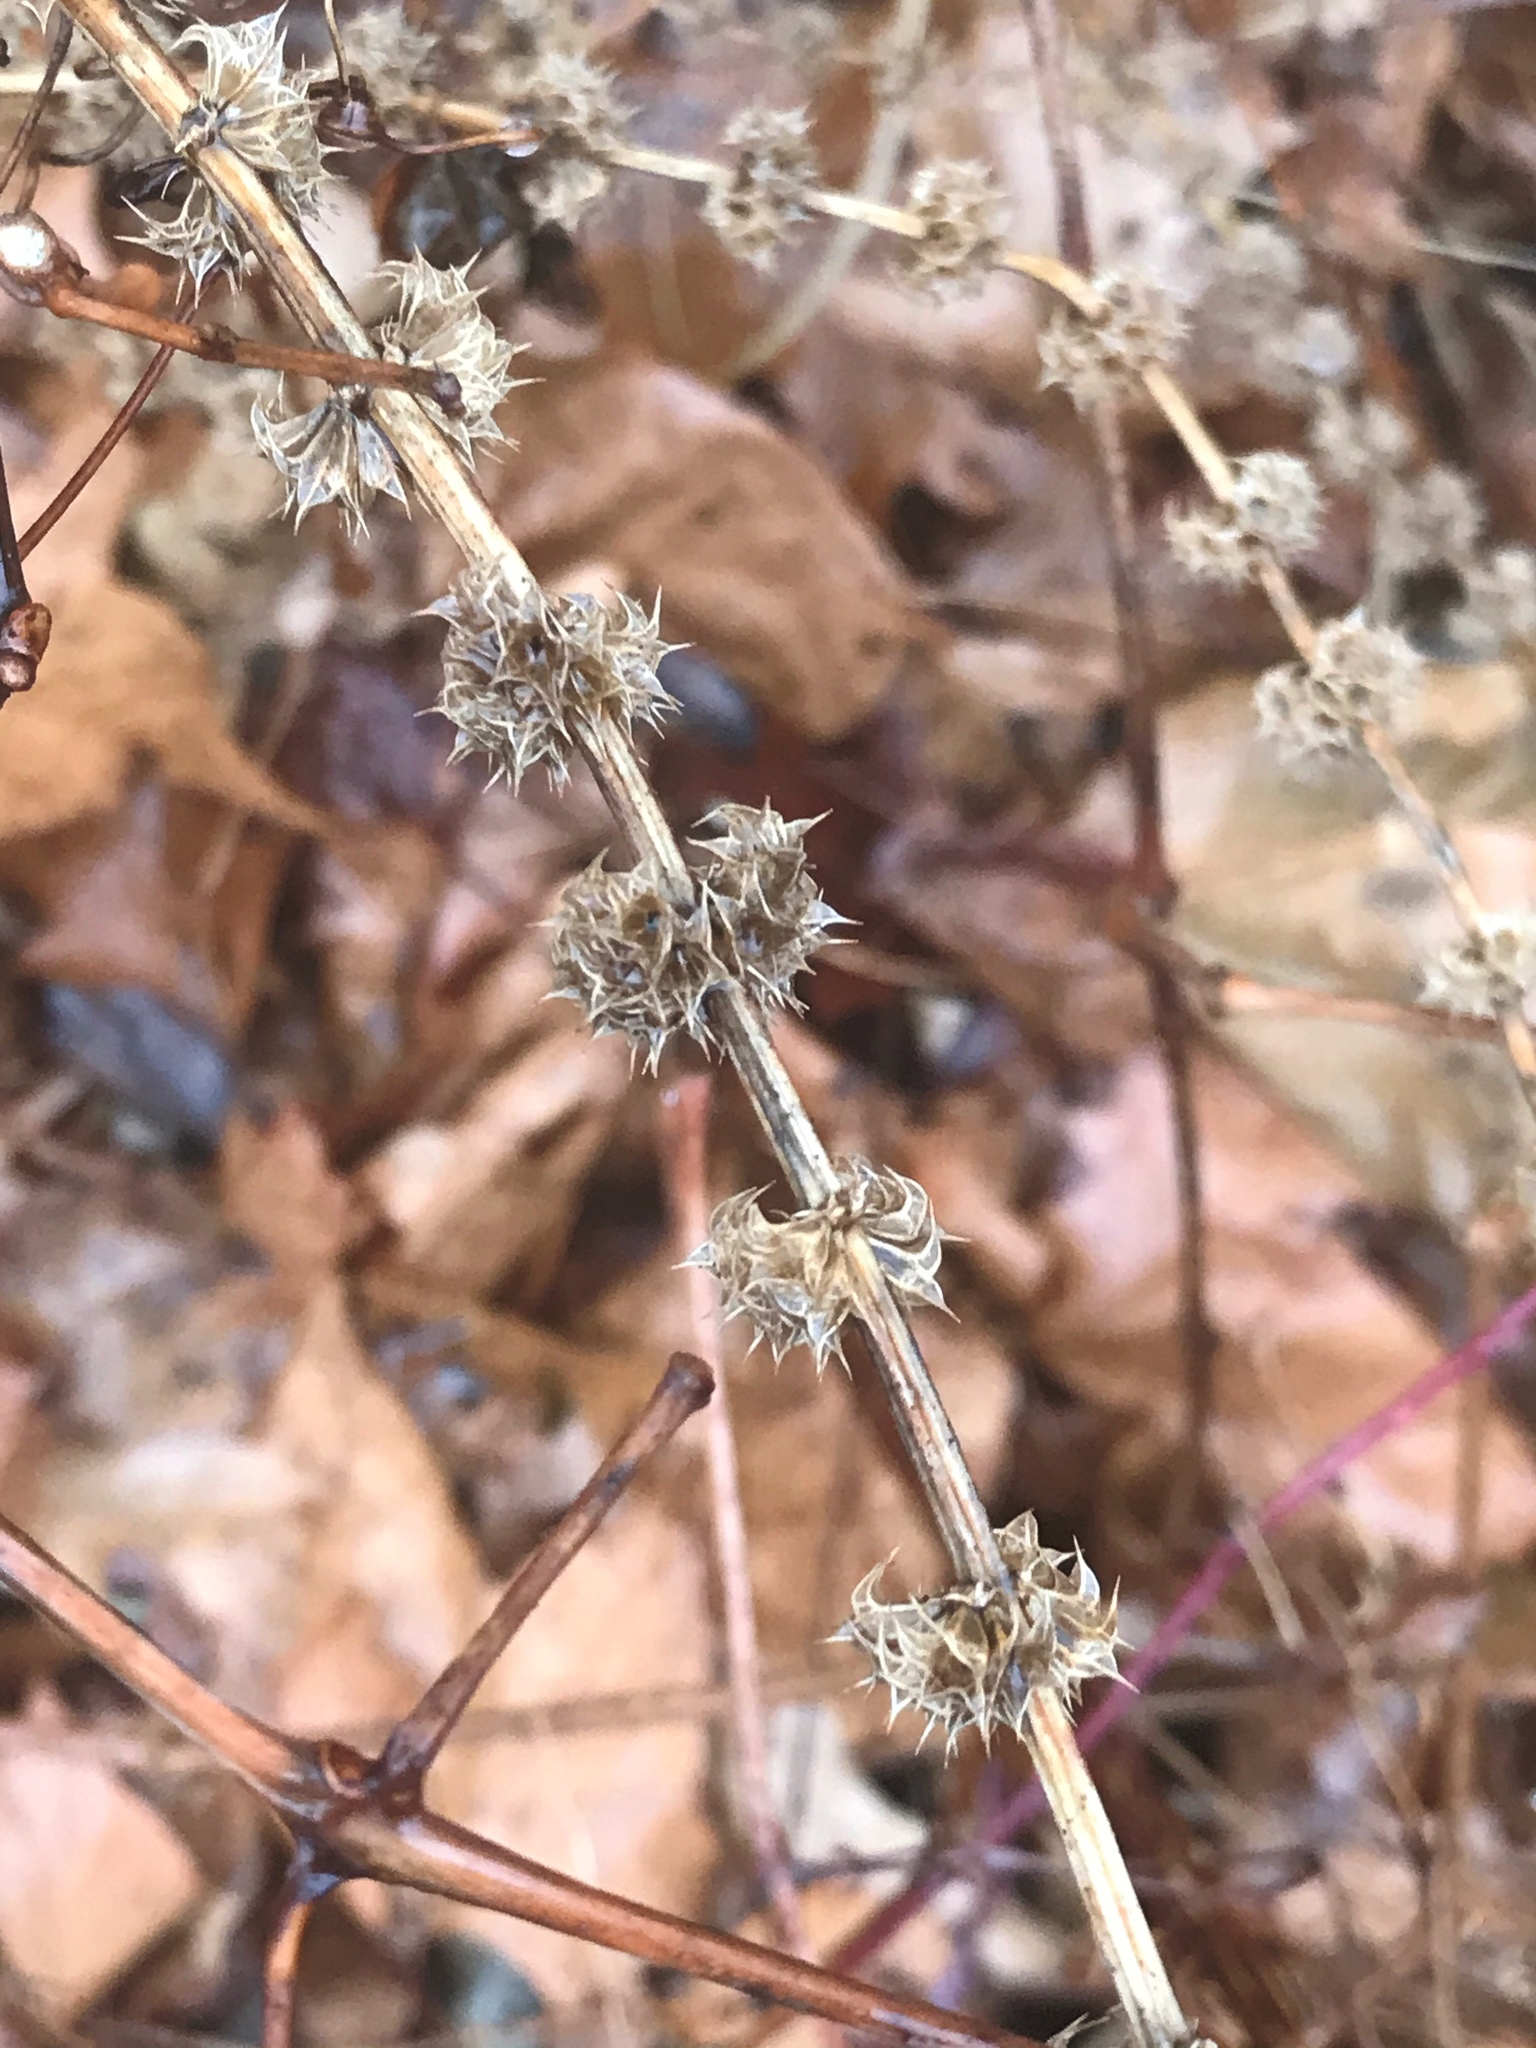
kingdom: Plantae
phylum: Tracheophyta
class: Magnoliopsida
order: Lamiales
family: Lamiaceae
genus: Leonurus
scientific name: Leonurus cardiaca
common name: Motherwort
